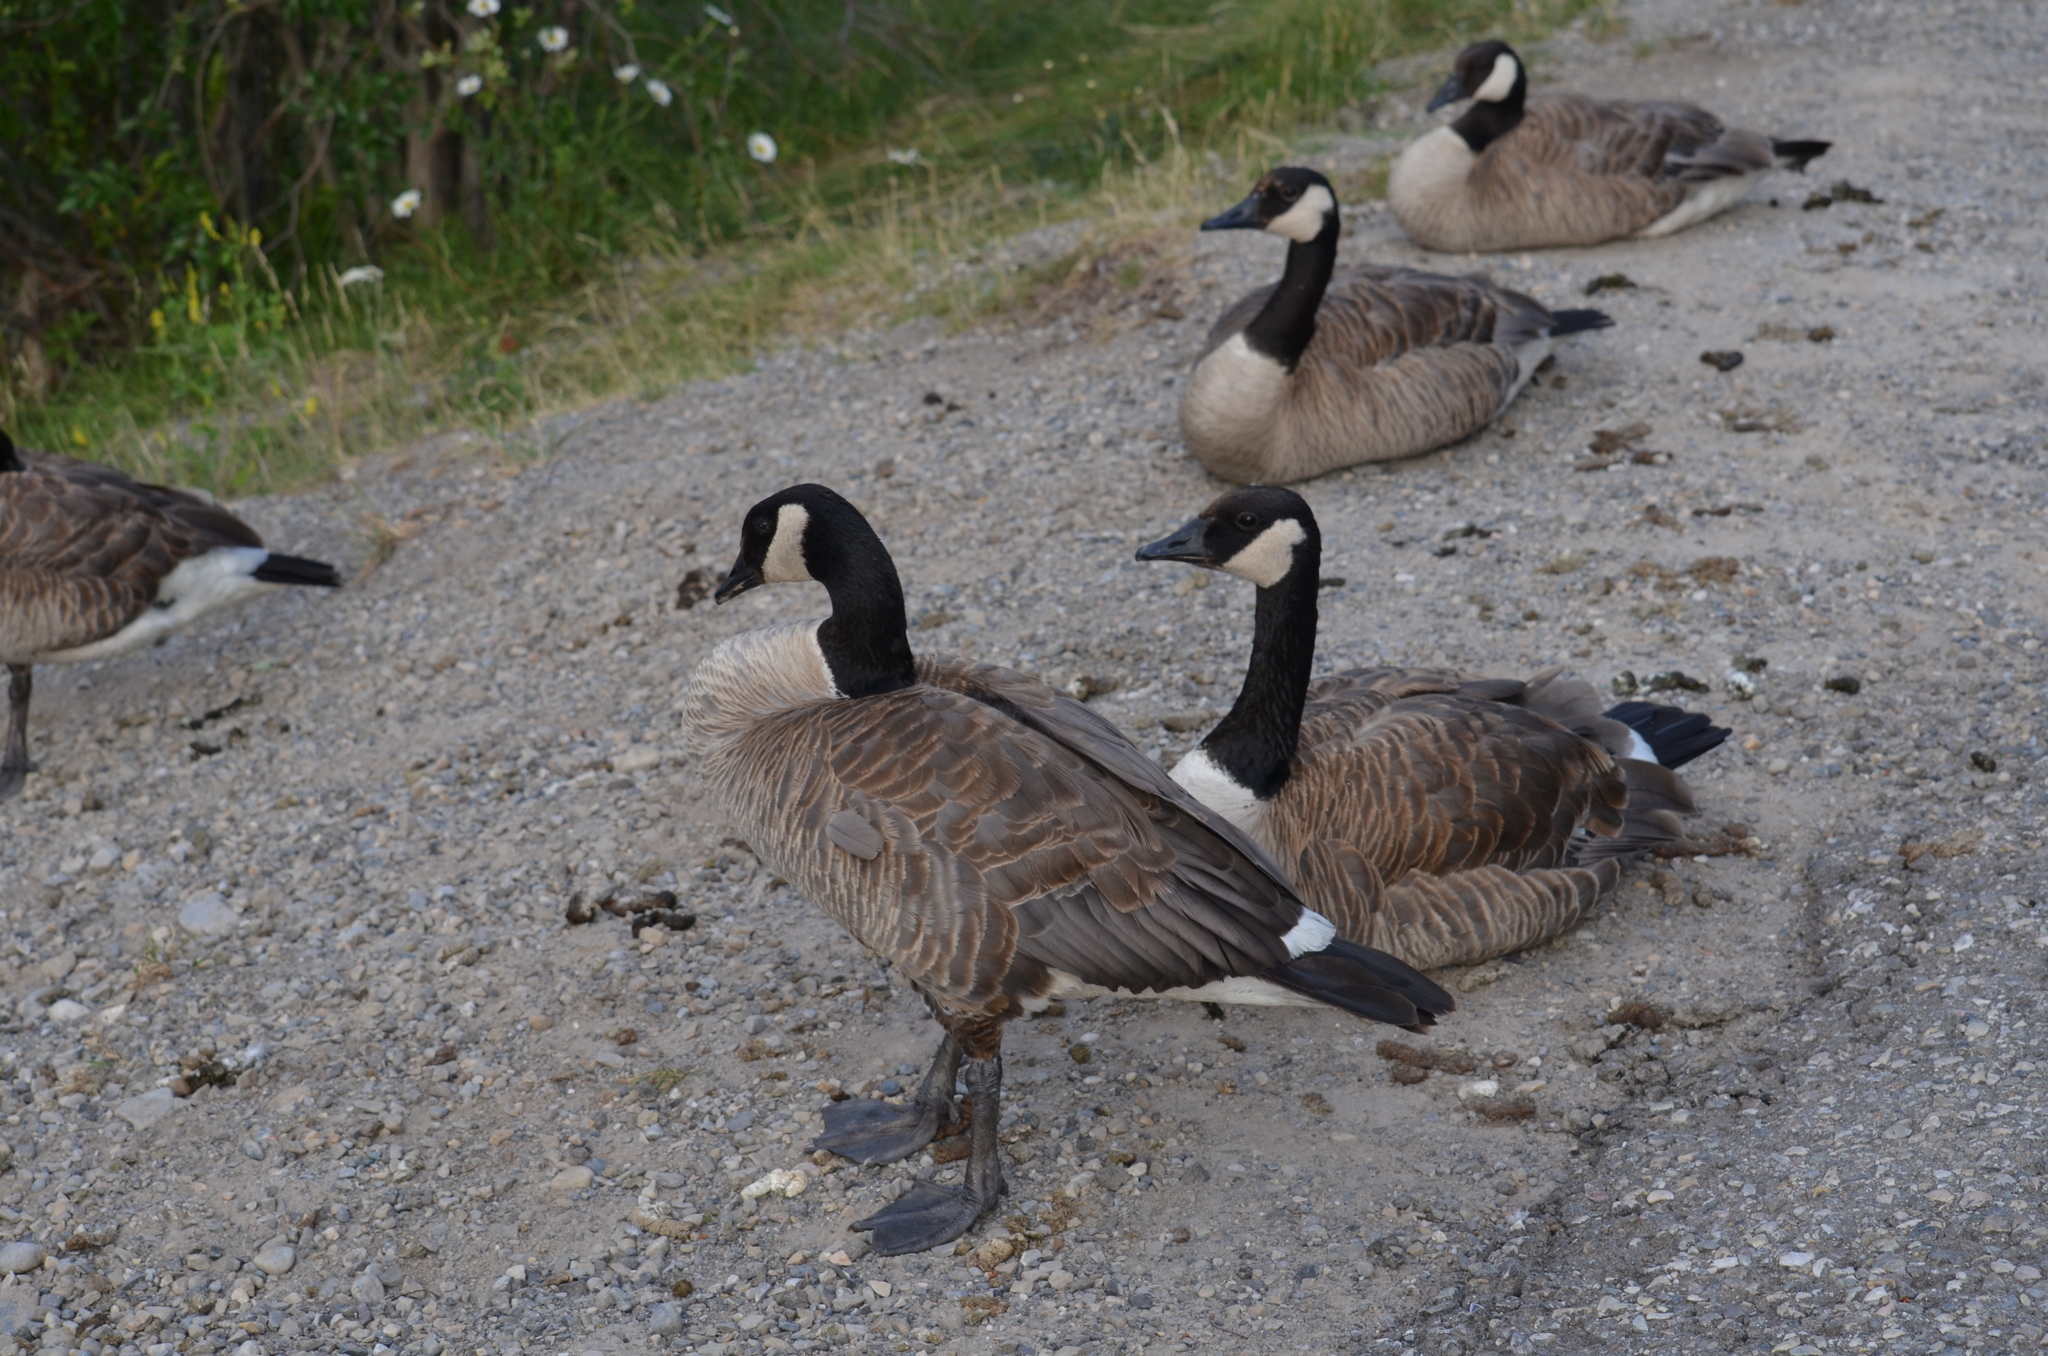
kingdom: Animalia
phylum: Chordata
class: Aves
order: Anseriformes
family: Anatidae
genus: Branta
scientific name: Branta canadensis
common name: Canada goose
